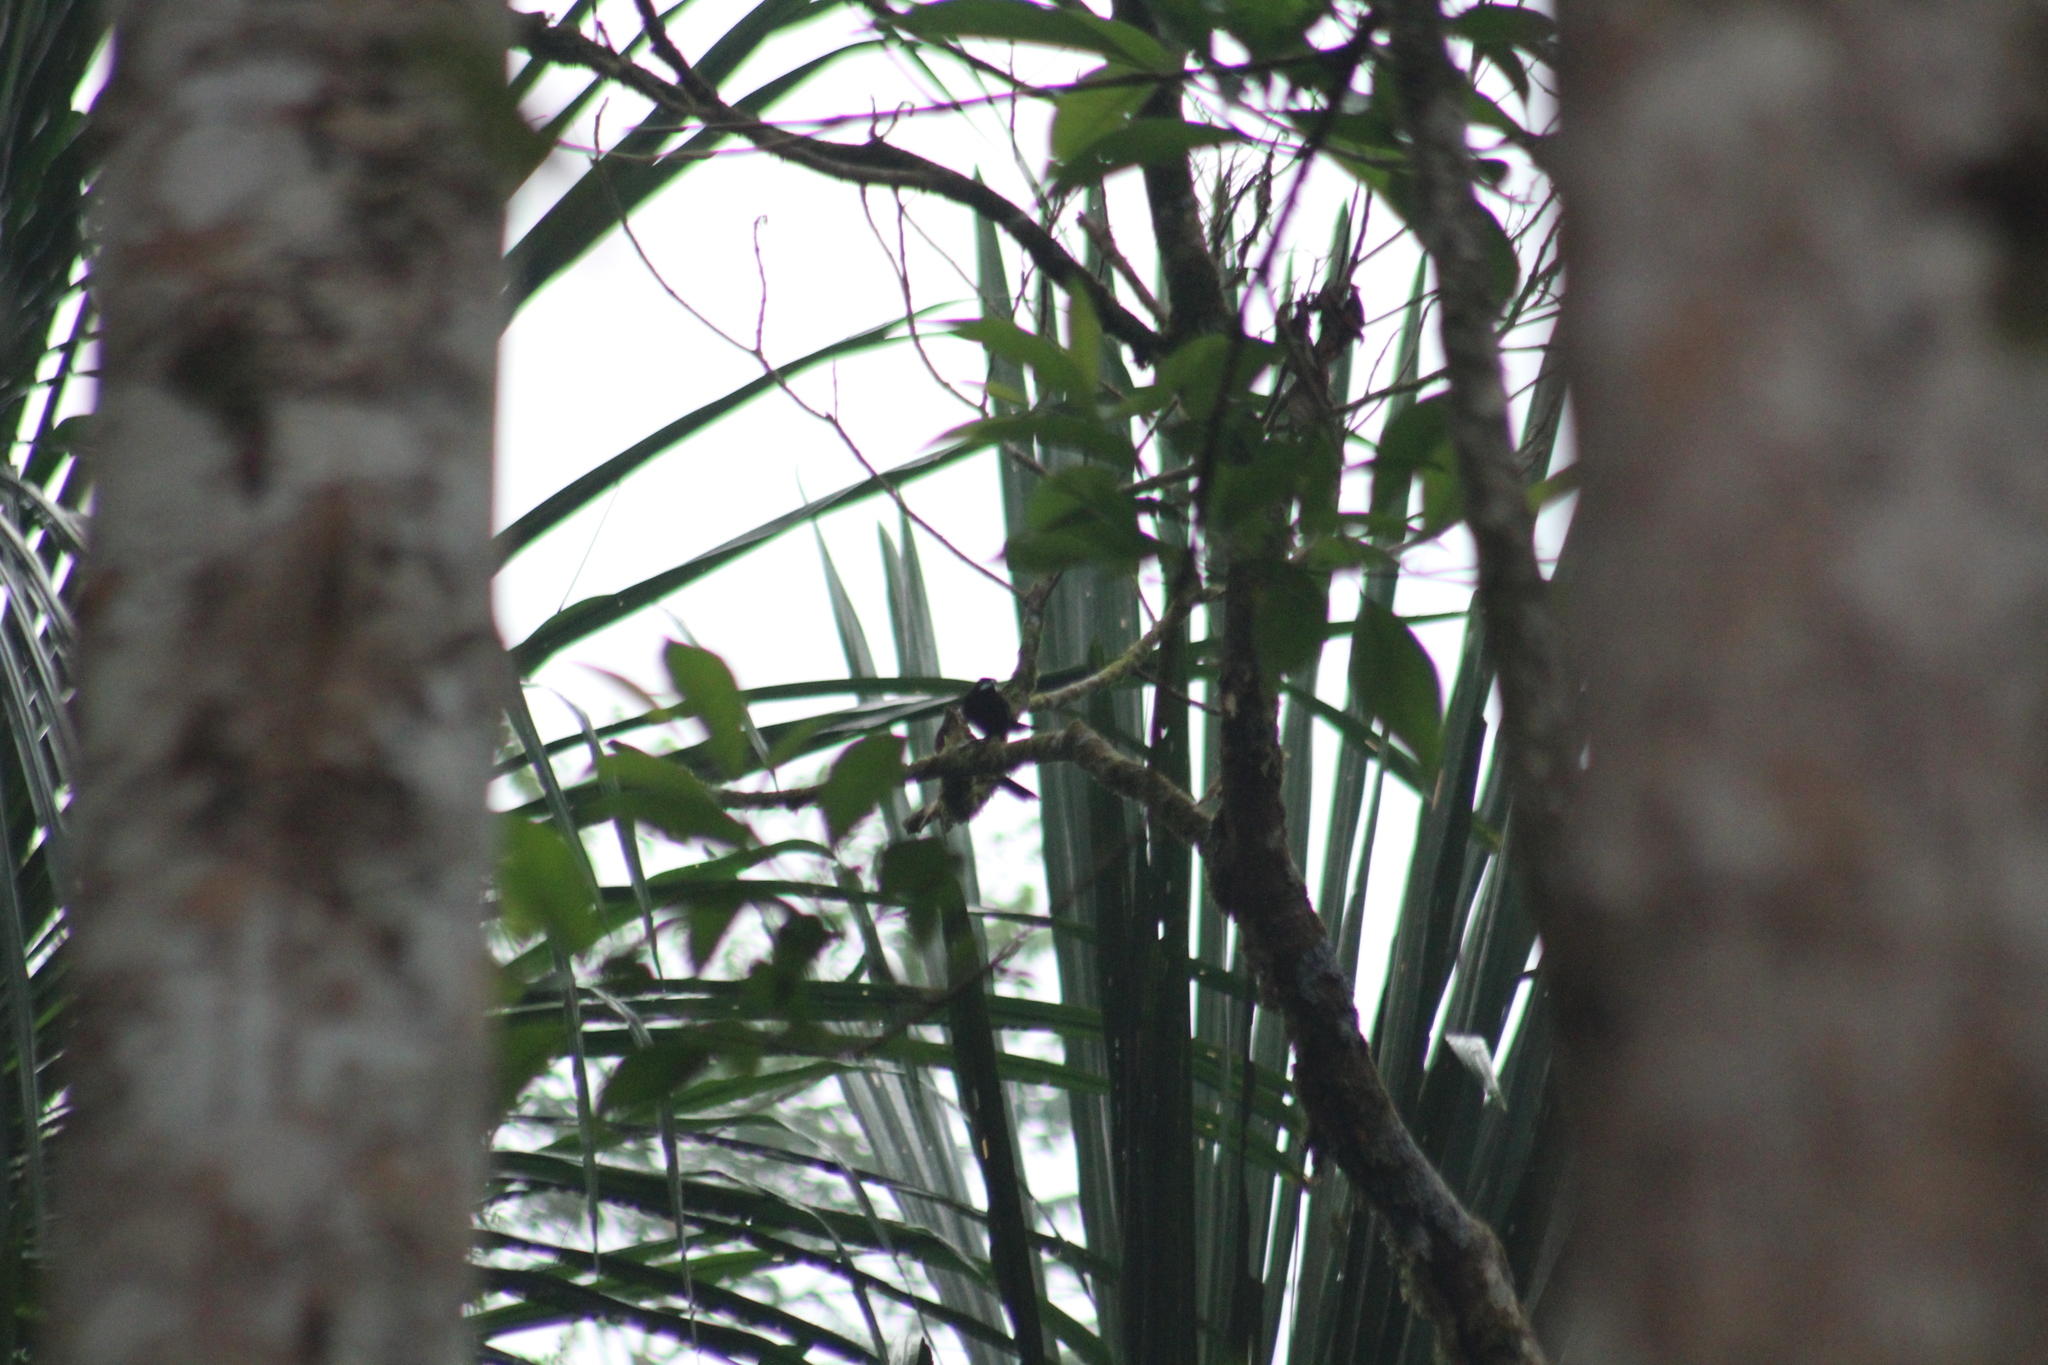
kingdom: Animalia
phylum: Chordata
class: Aves
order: Passeriformes
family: Thraupidae
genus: Ramphocelus
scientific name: Ramphocelus carbo
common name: Silver-beaked tanager
